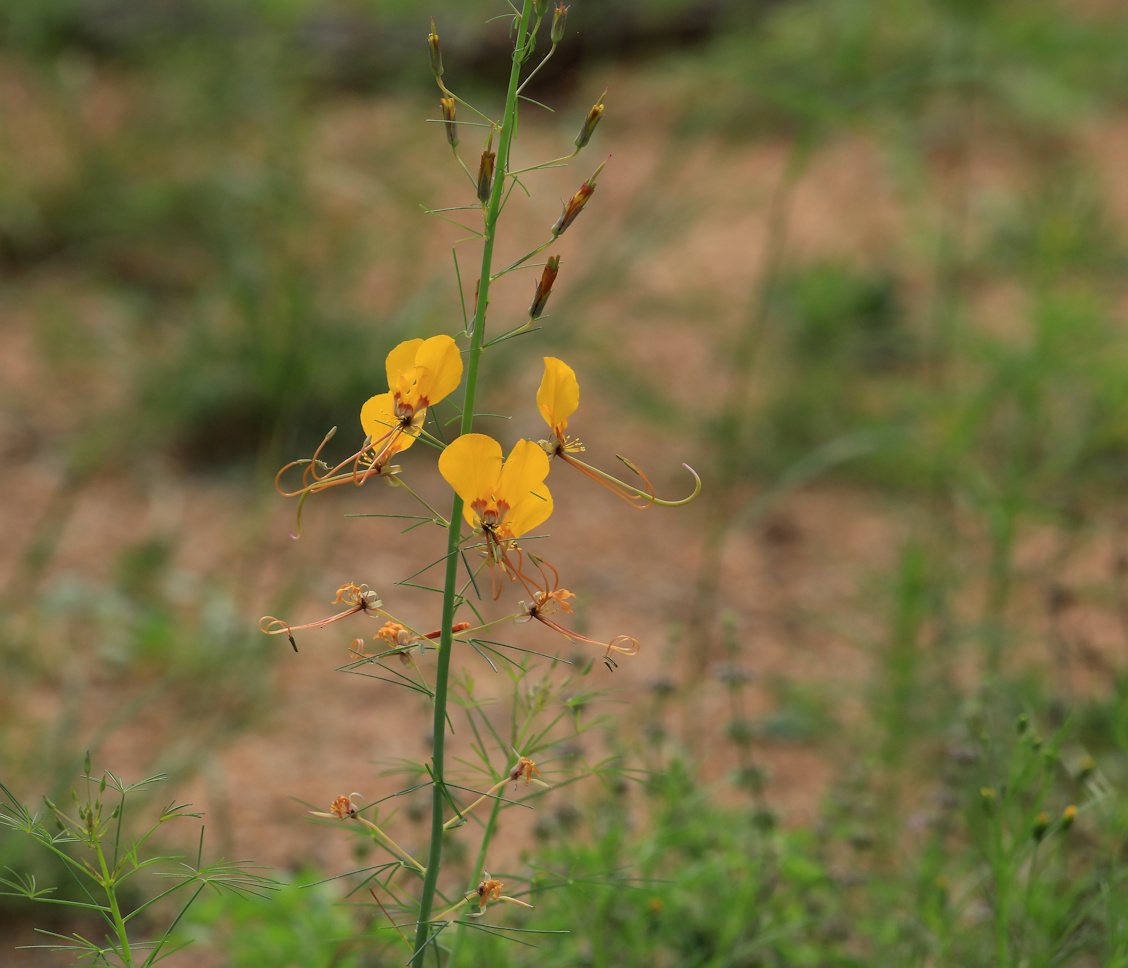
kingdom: Plantae
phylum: Tracheophyta
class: Magnoliopsida
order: Brassicales
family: Cleomaceae
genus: Coalisina
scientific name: Coalisina
